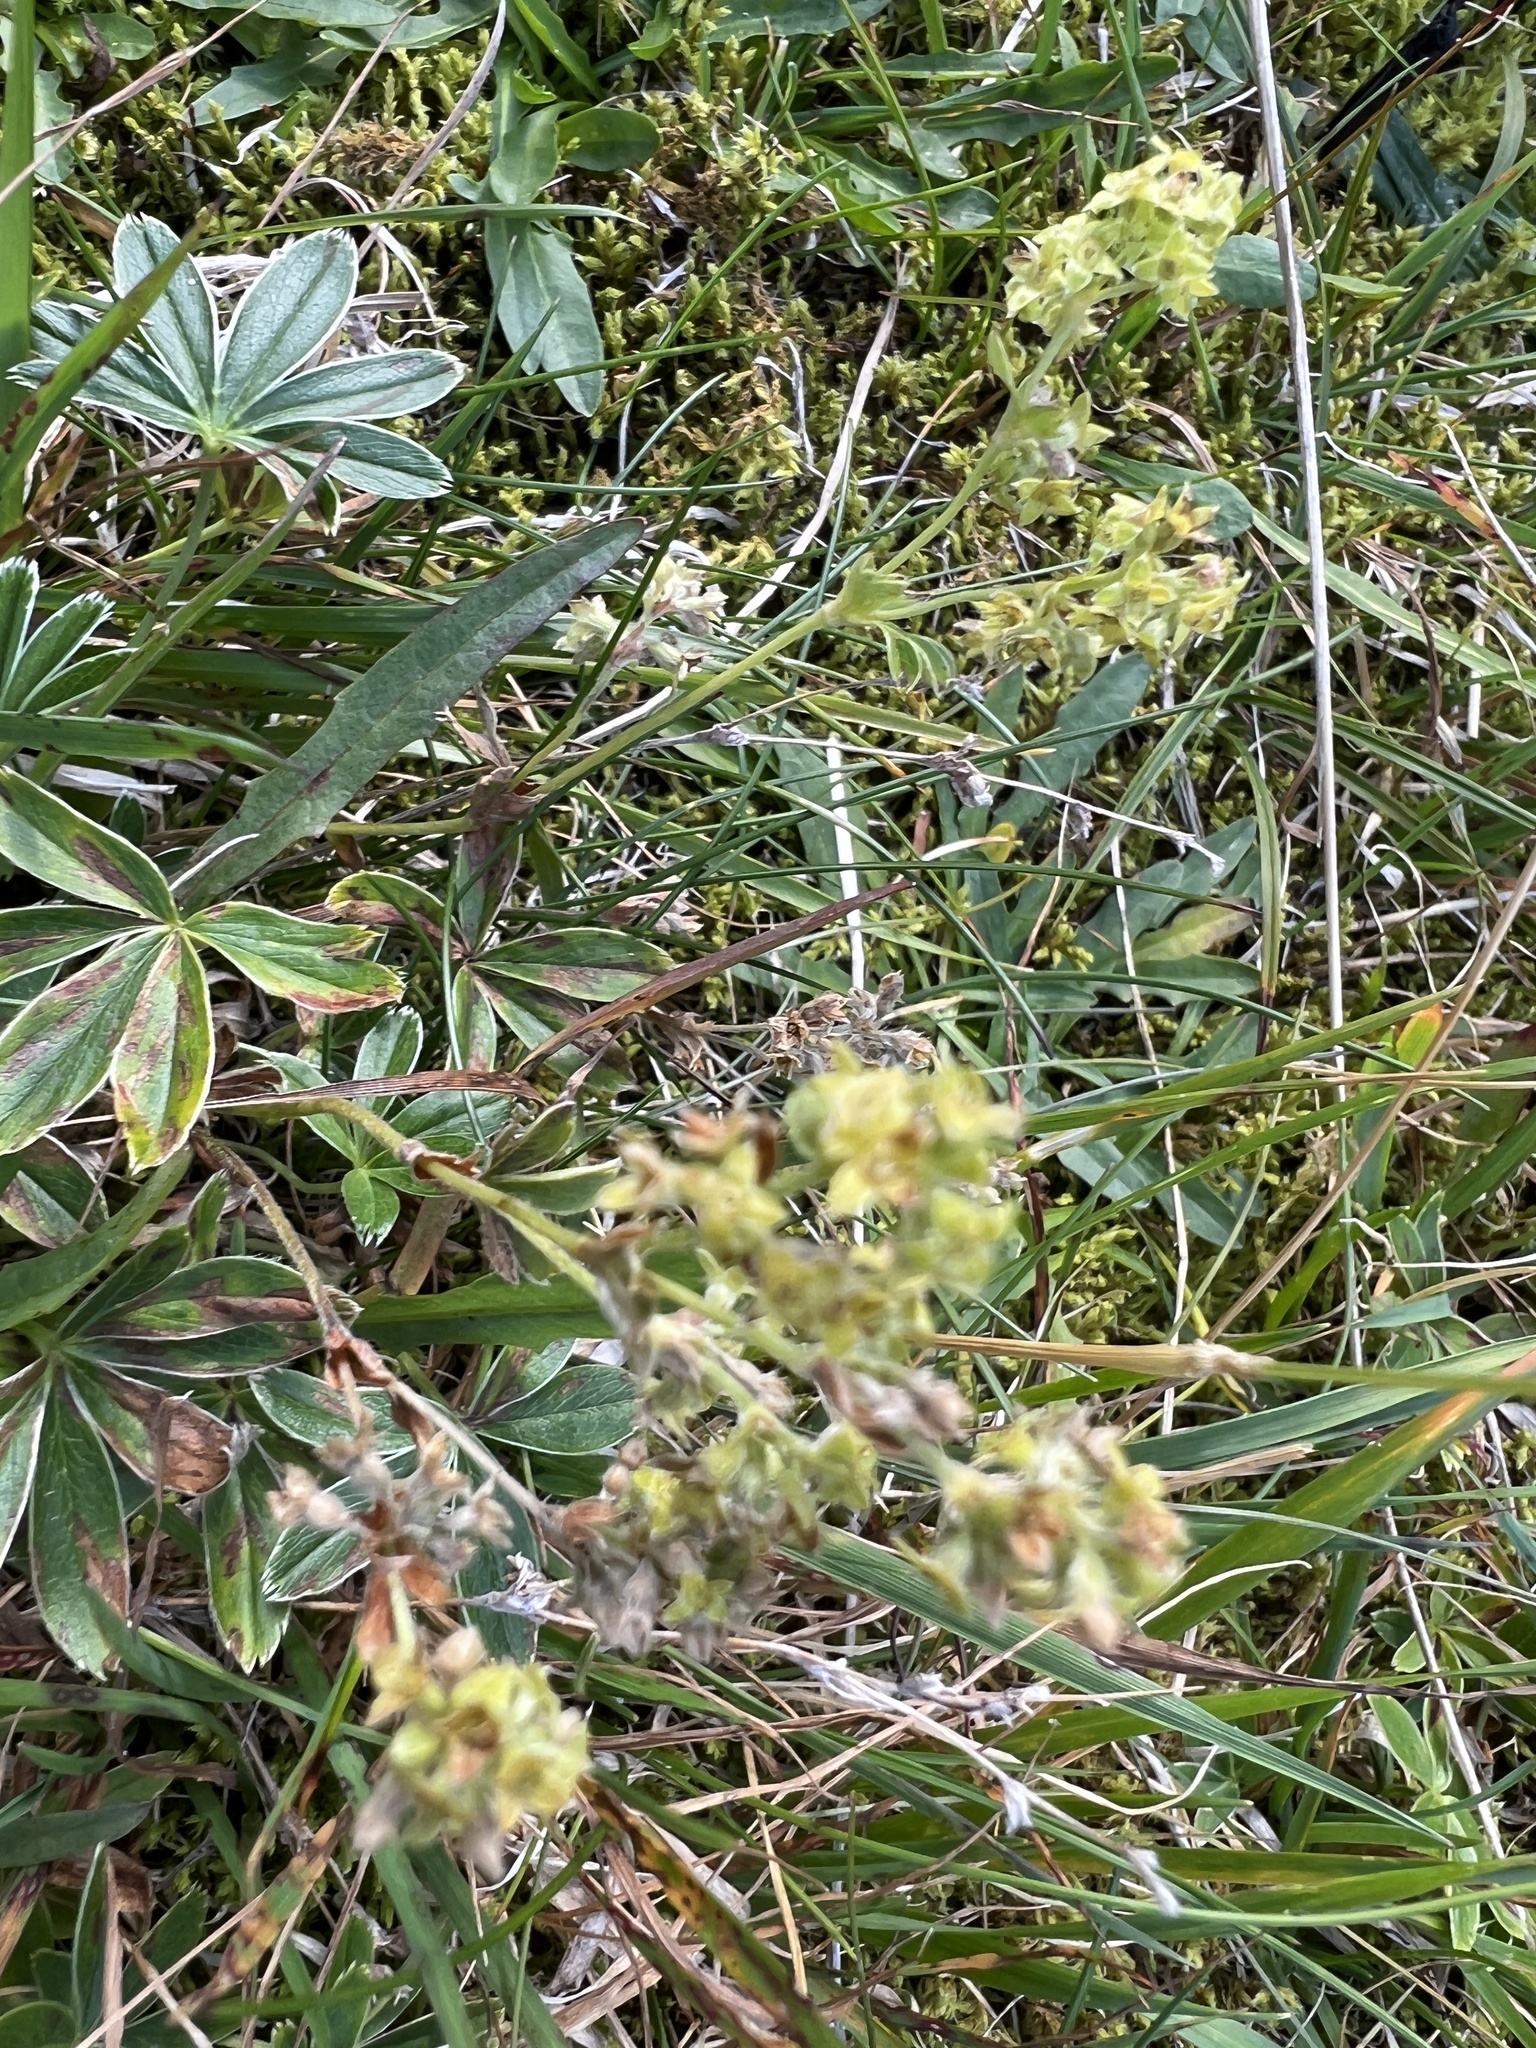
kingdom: Plantae
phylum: Tracheophyta
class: Magnoliopsida
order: Rosales
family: Rosaceae
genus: Alchemilla
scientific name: Alchemilla alpina
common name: Alpine lady's-mantle
